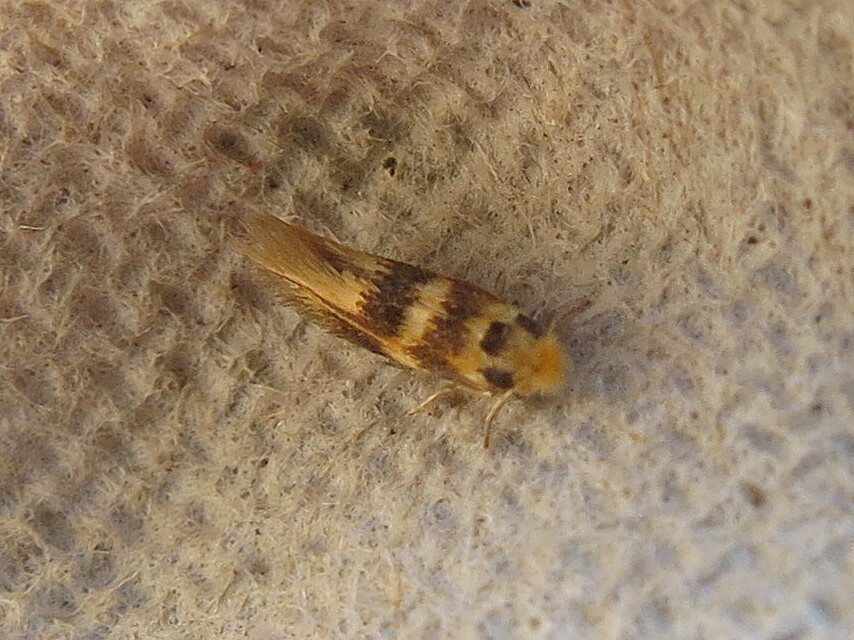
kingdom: Animalia
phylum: Arthropoda
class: Insecta
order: Lepidoptera
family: Bucculatricidae
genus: Bucculatrix
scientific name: Bucculatrix thoracella
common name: Lime bent-wing
